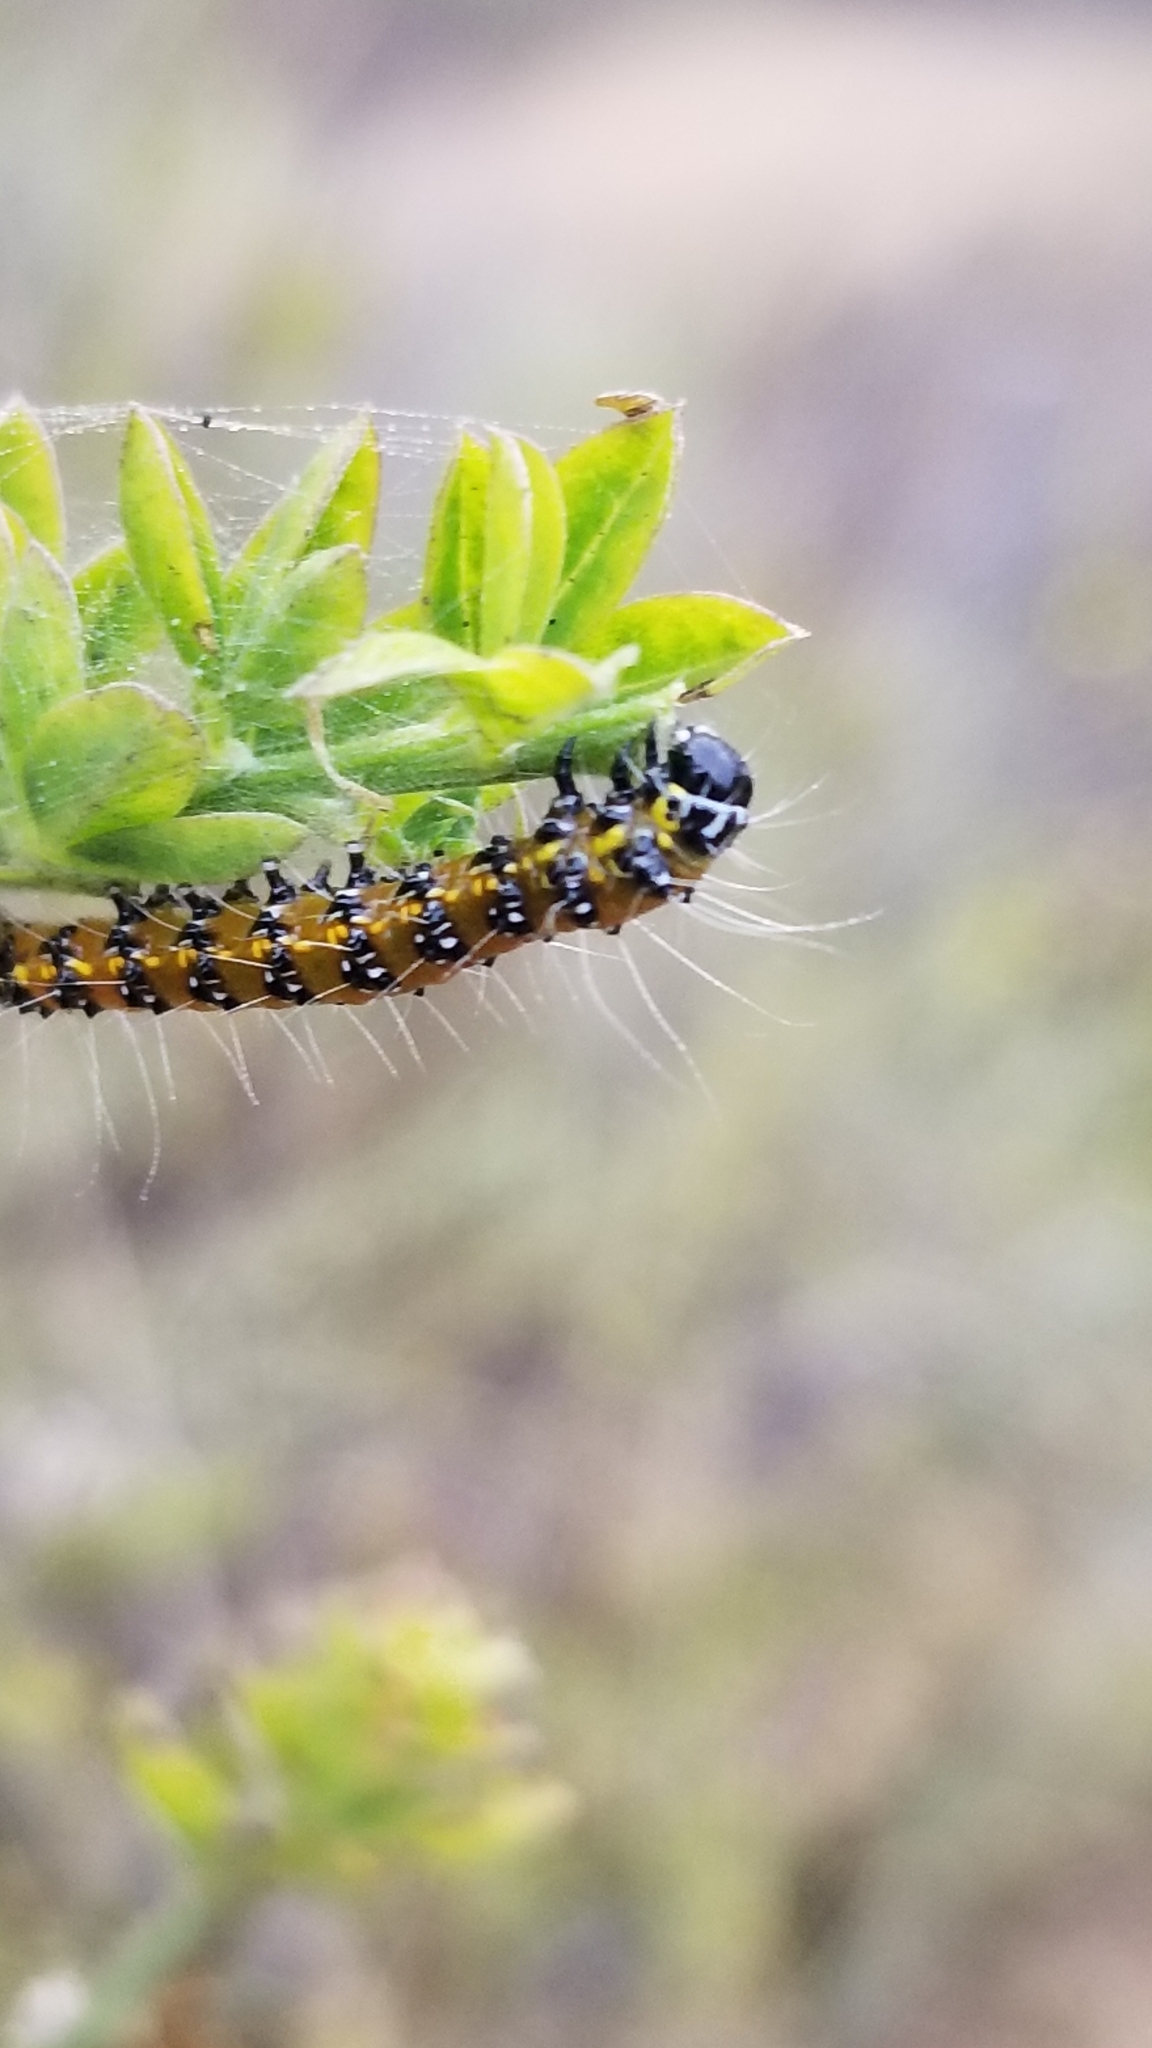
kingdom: Animalia
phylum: Arthropoda
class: Insecta
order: Lepidoptera
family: Crambidae
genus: Uresiphita
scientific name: Uresiphita reversalis
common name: Genista broom moth
